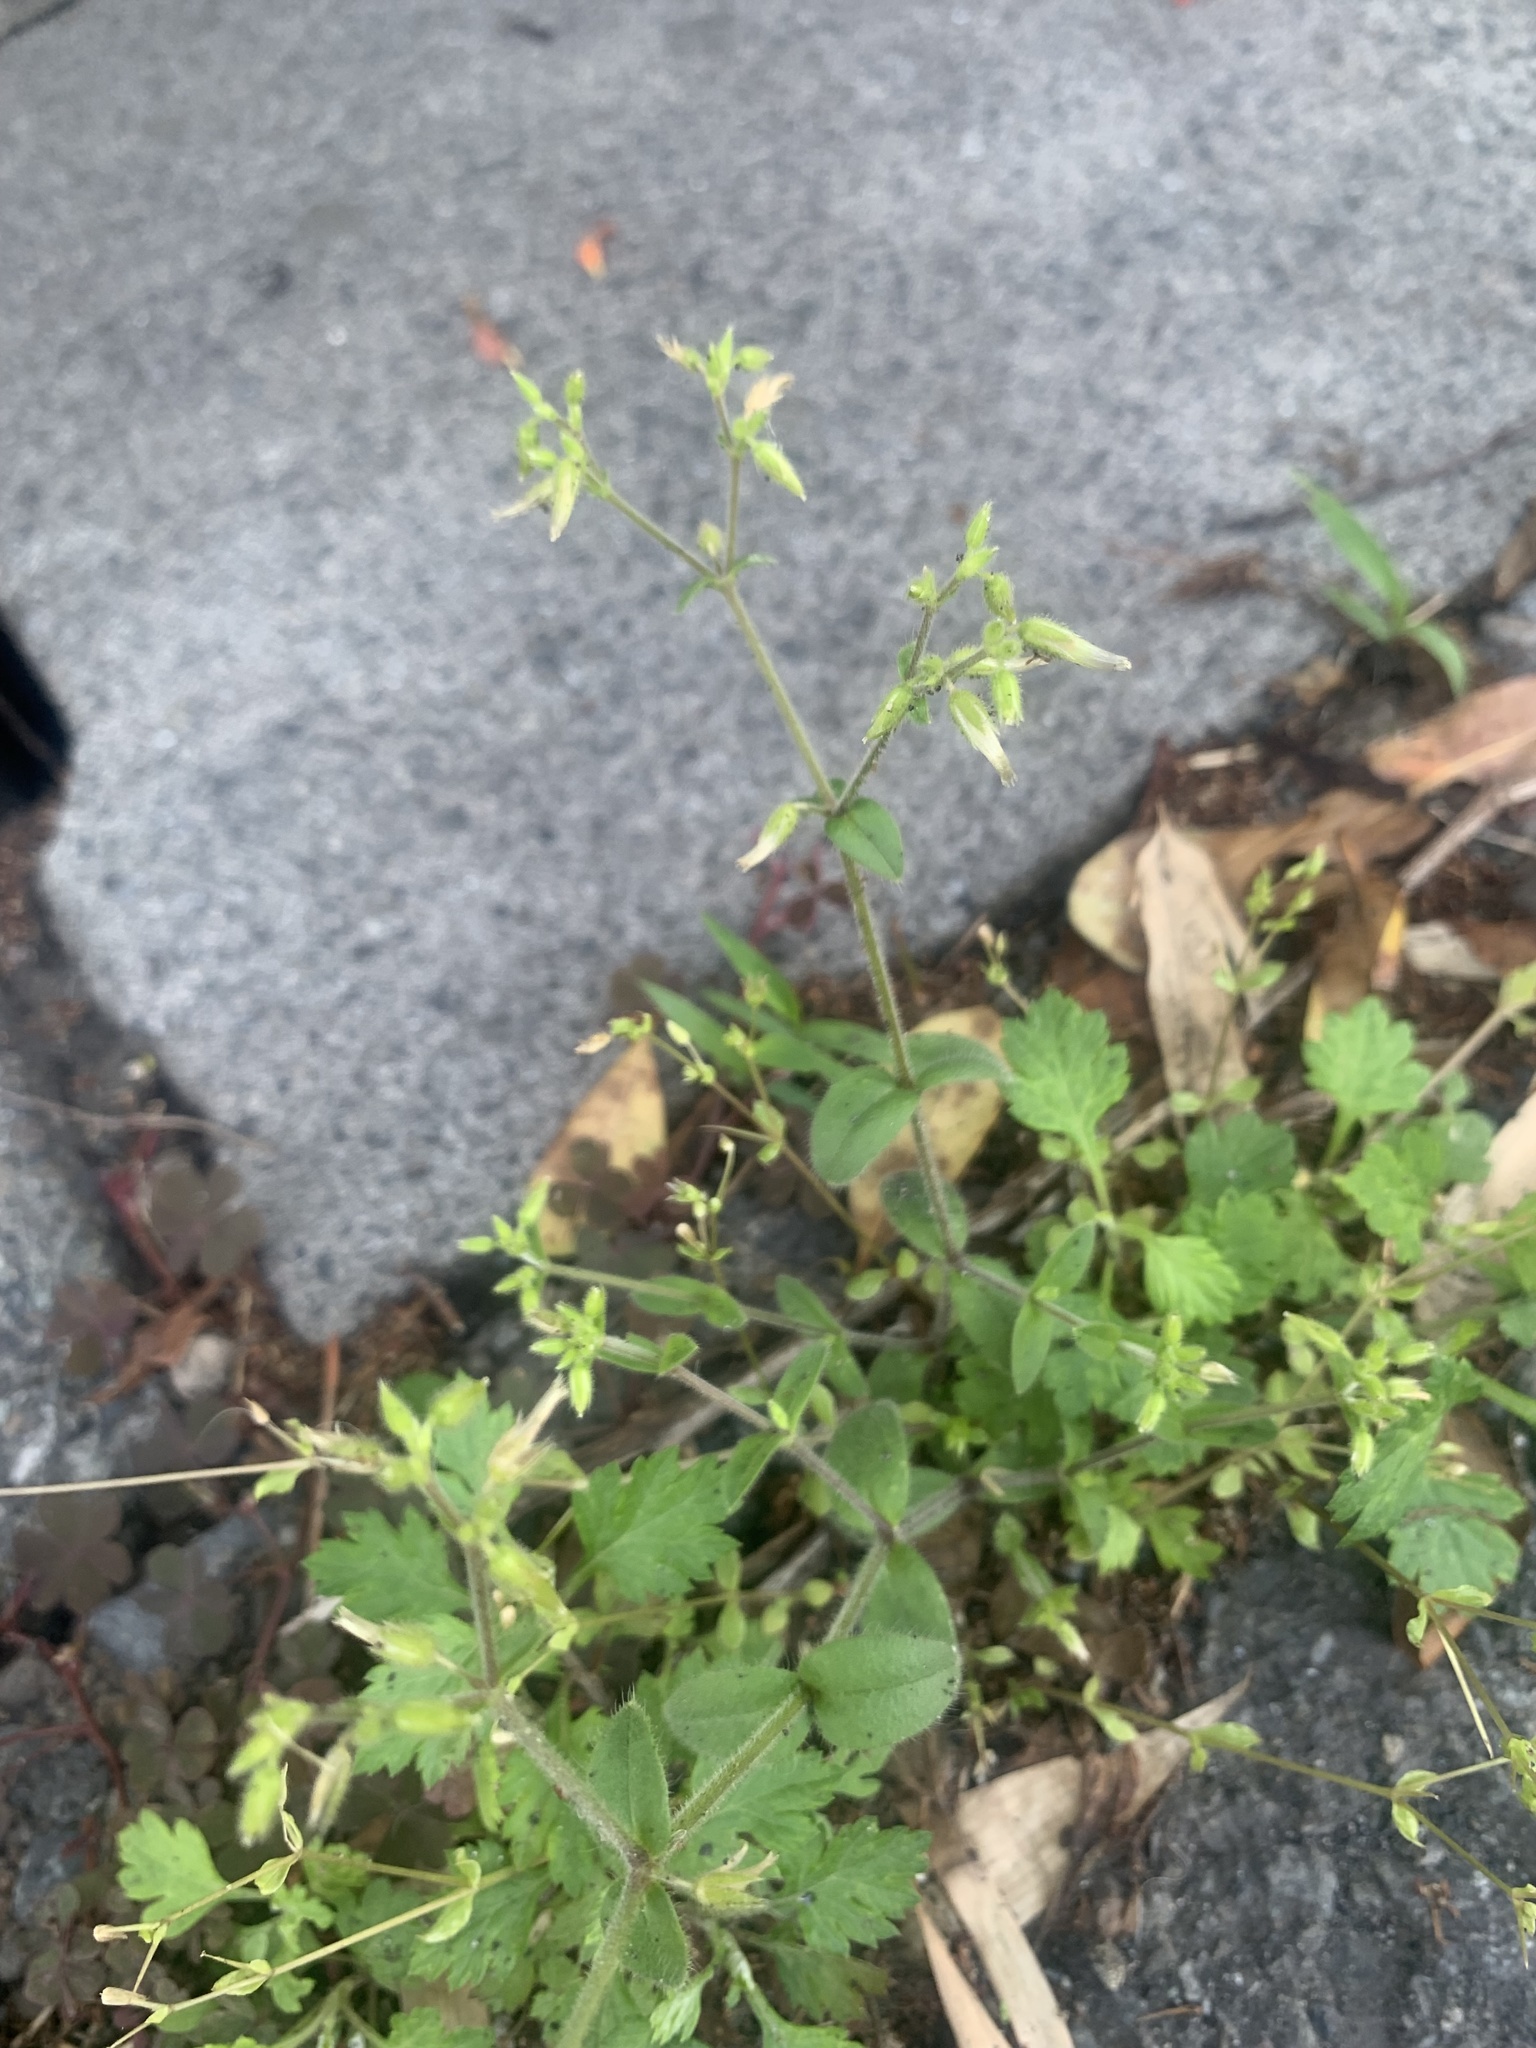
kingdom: Plantae
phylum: Tracheophyta
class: Magnoliopsida
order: Caryophyllales
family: Caryophyllaceae
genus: Cerastium
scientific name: Cerastium glomeratum
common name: Sticky chickweed
